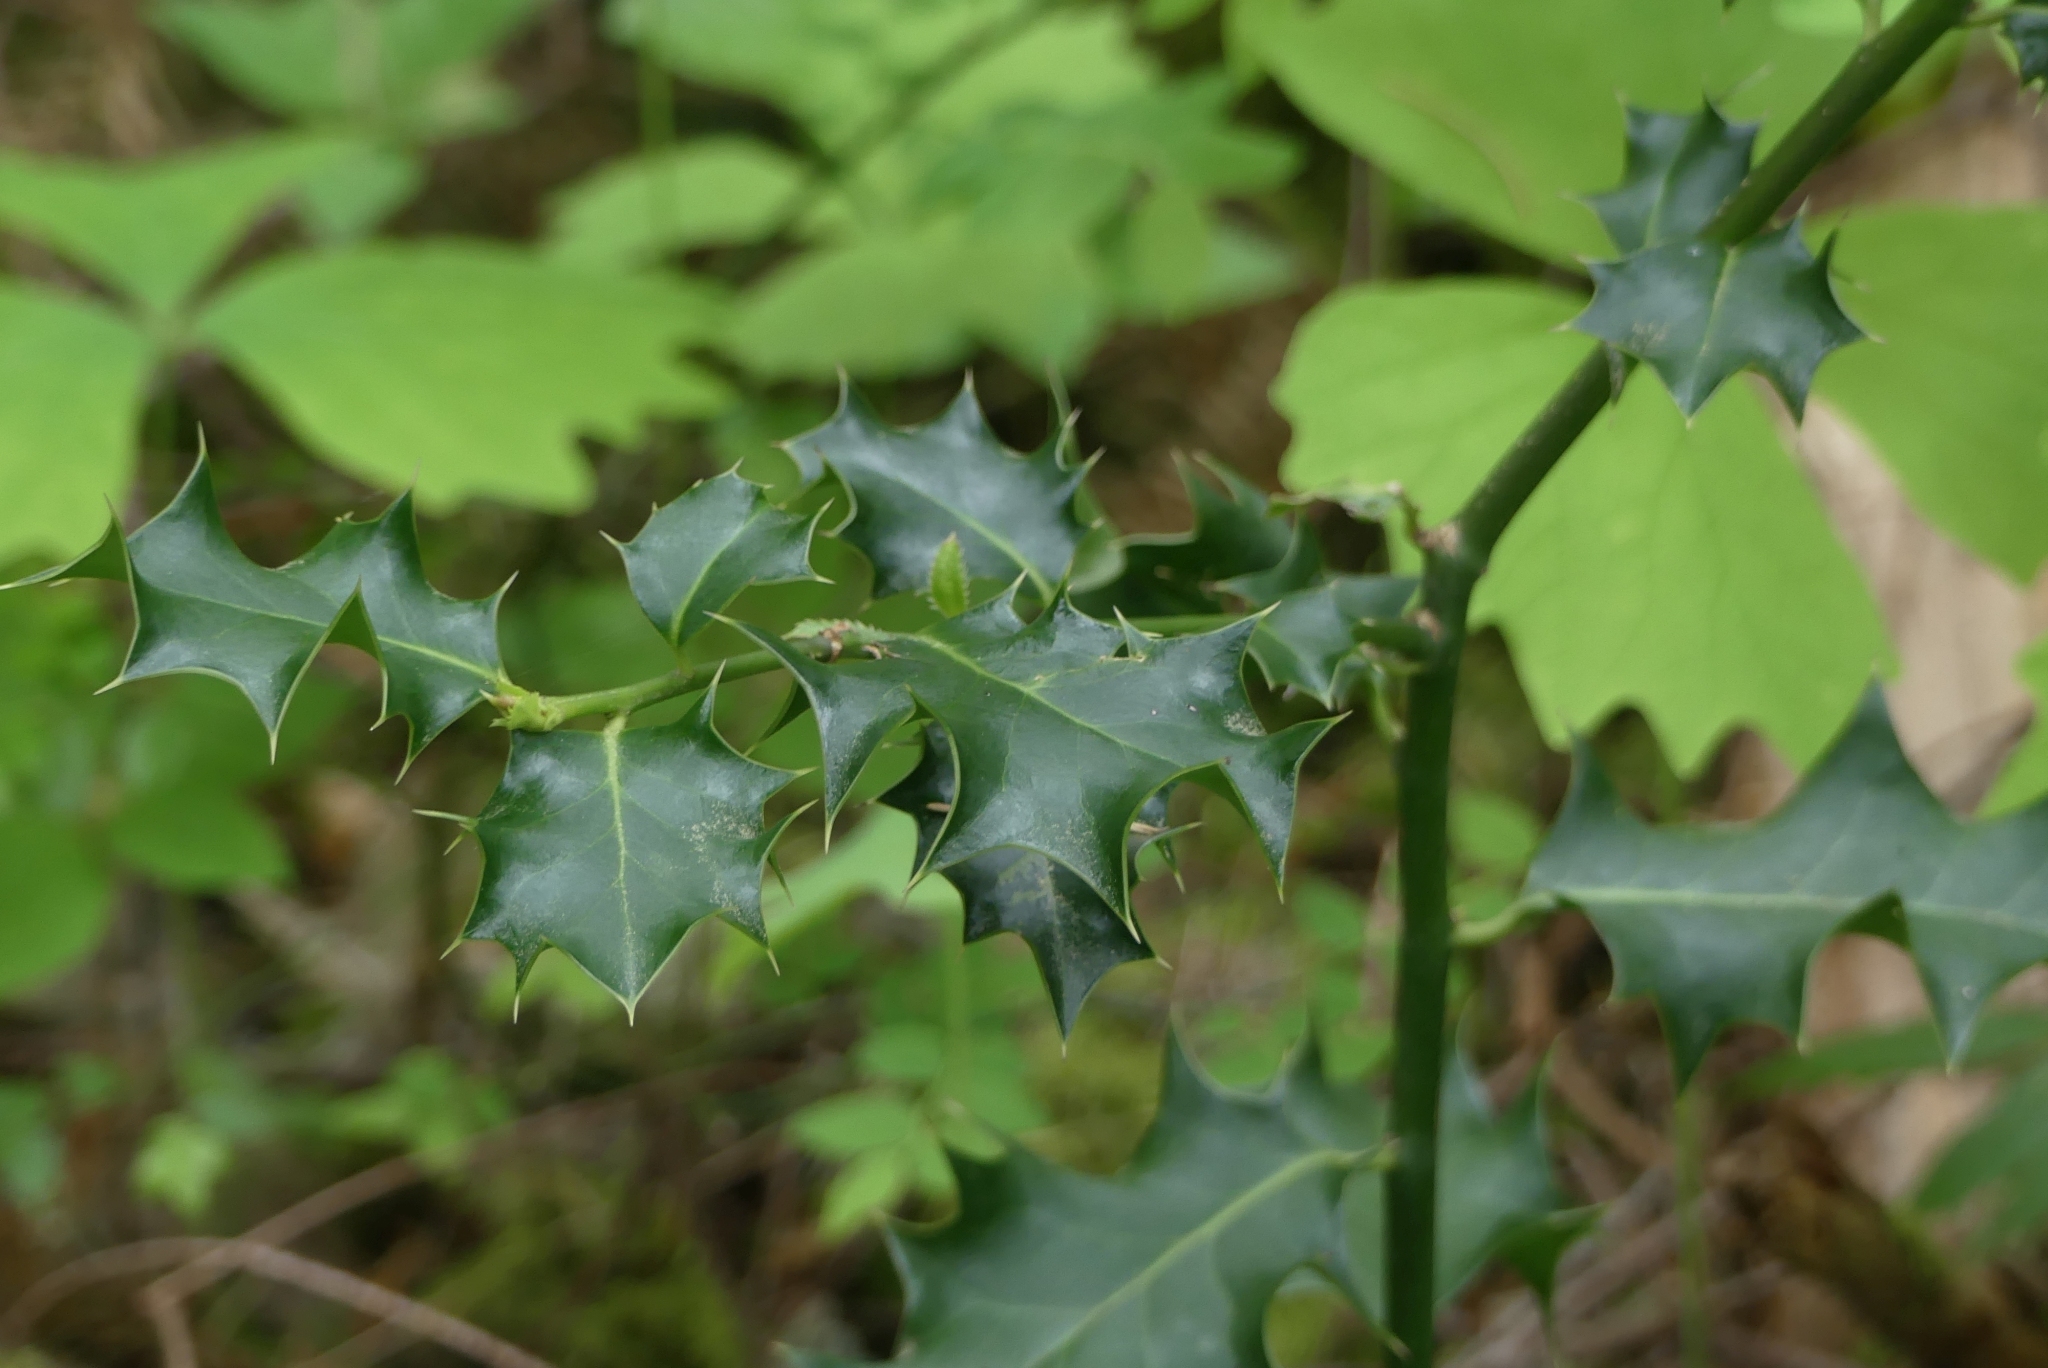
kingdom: Plantae
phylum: Tracheophyta
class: Magnoliopsida
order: Aquifoliales
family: Aquifoliaceae
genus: Ilex
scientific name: Ilex aquifolium
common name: English holly
